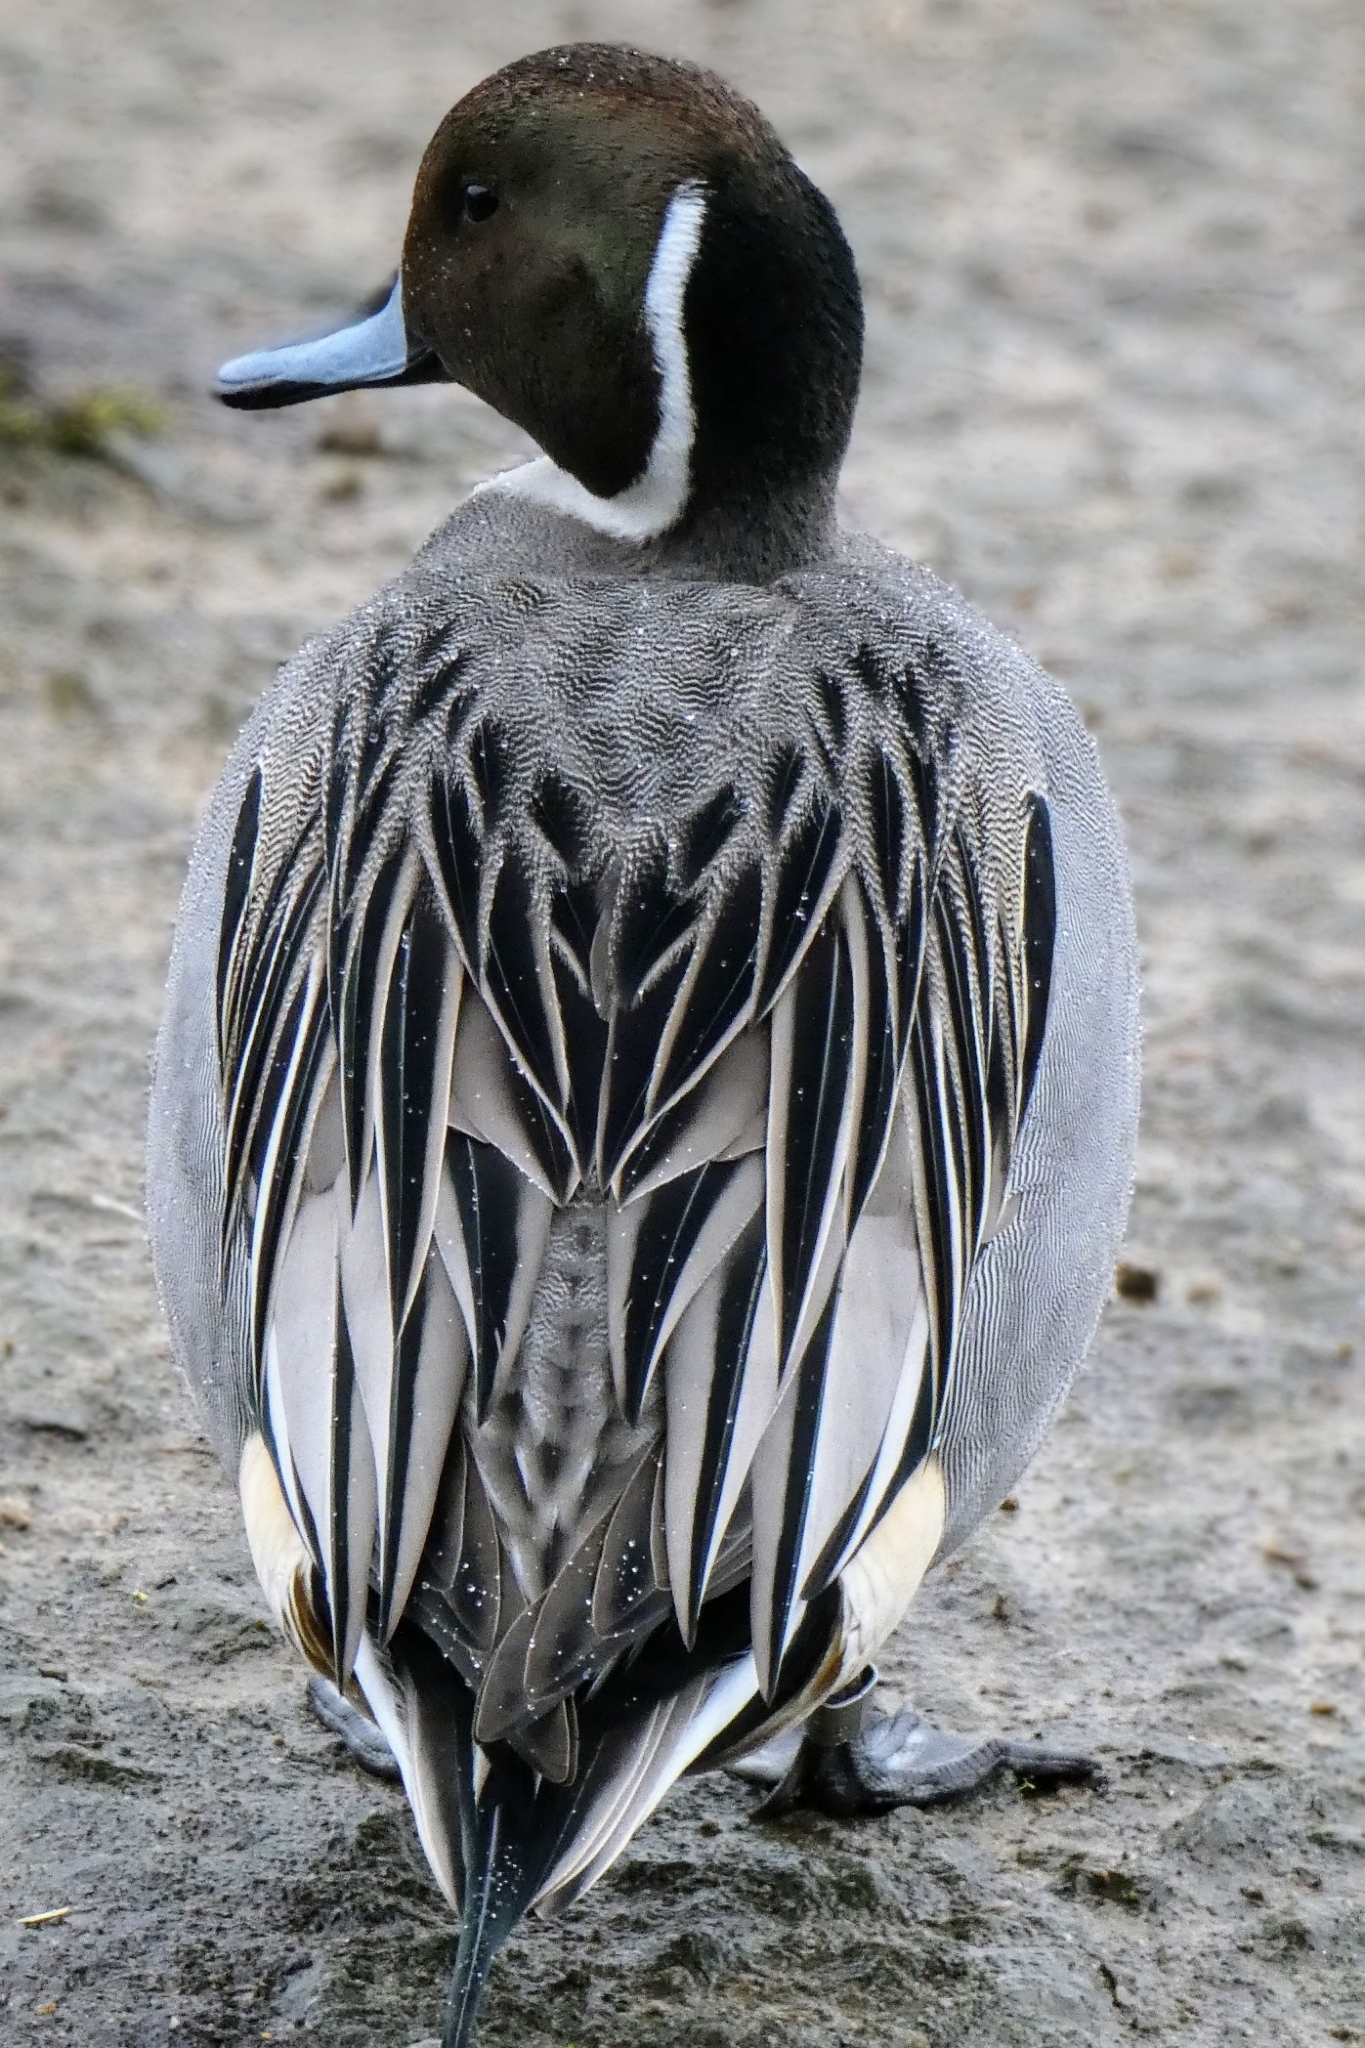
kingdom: Animalia
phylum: Chordata
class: Aves
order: Anseriformes
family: Anatidae
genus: Anas
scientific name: Anas acuta
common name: Northern pintail
